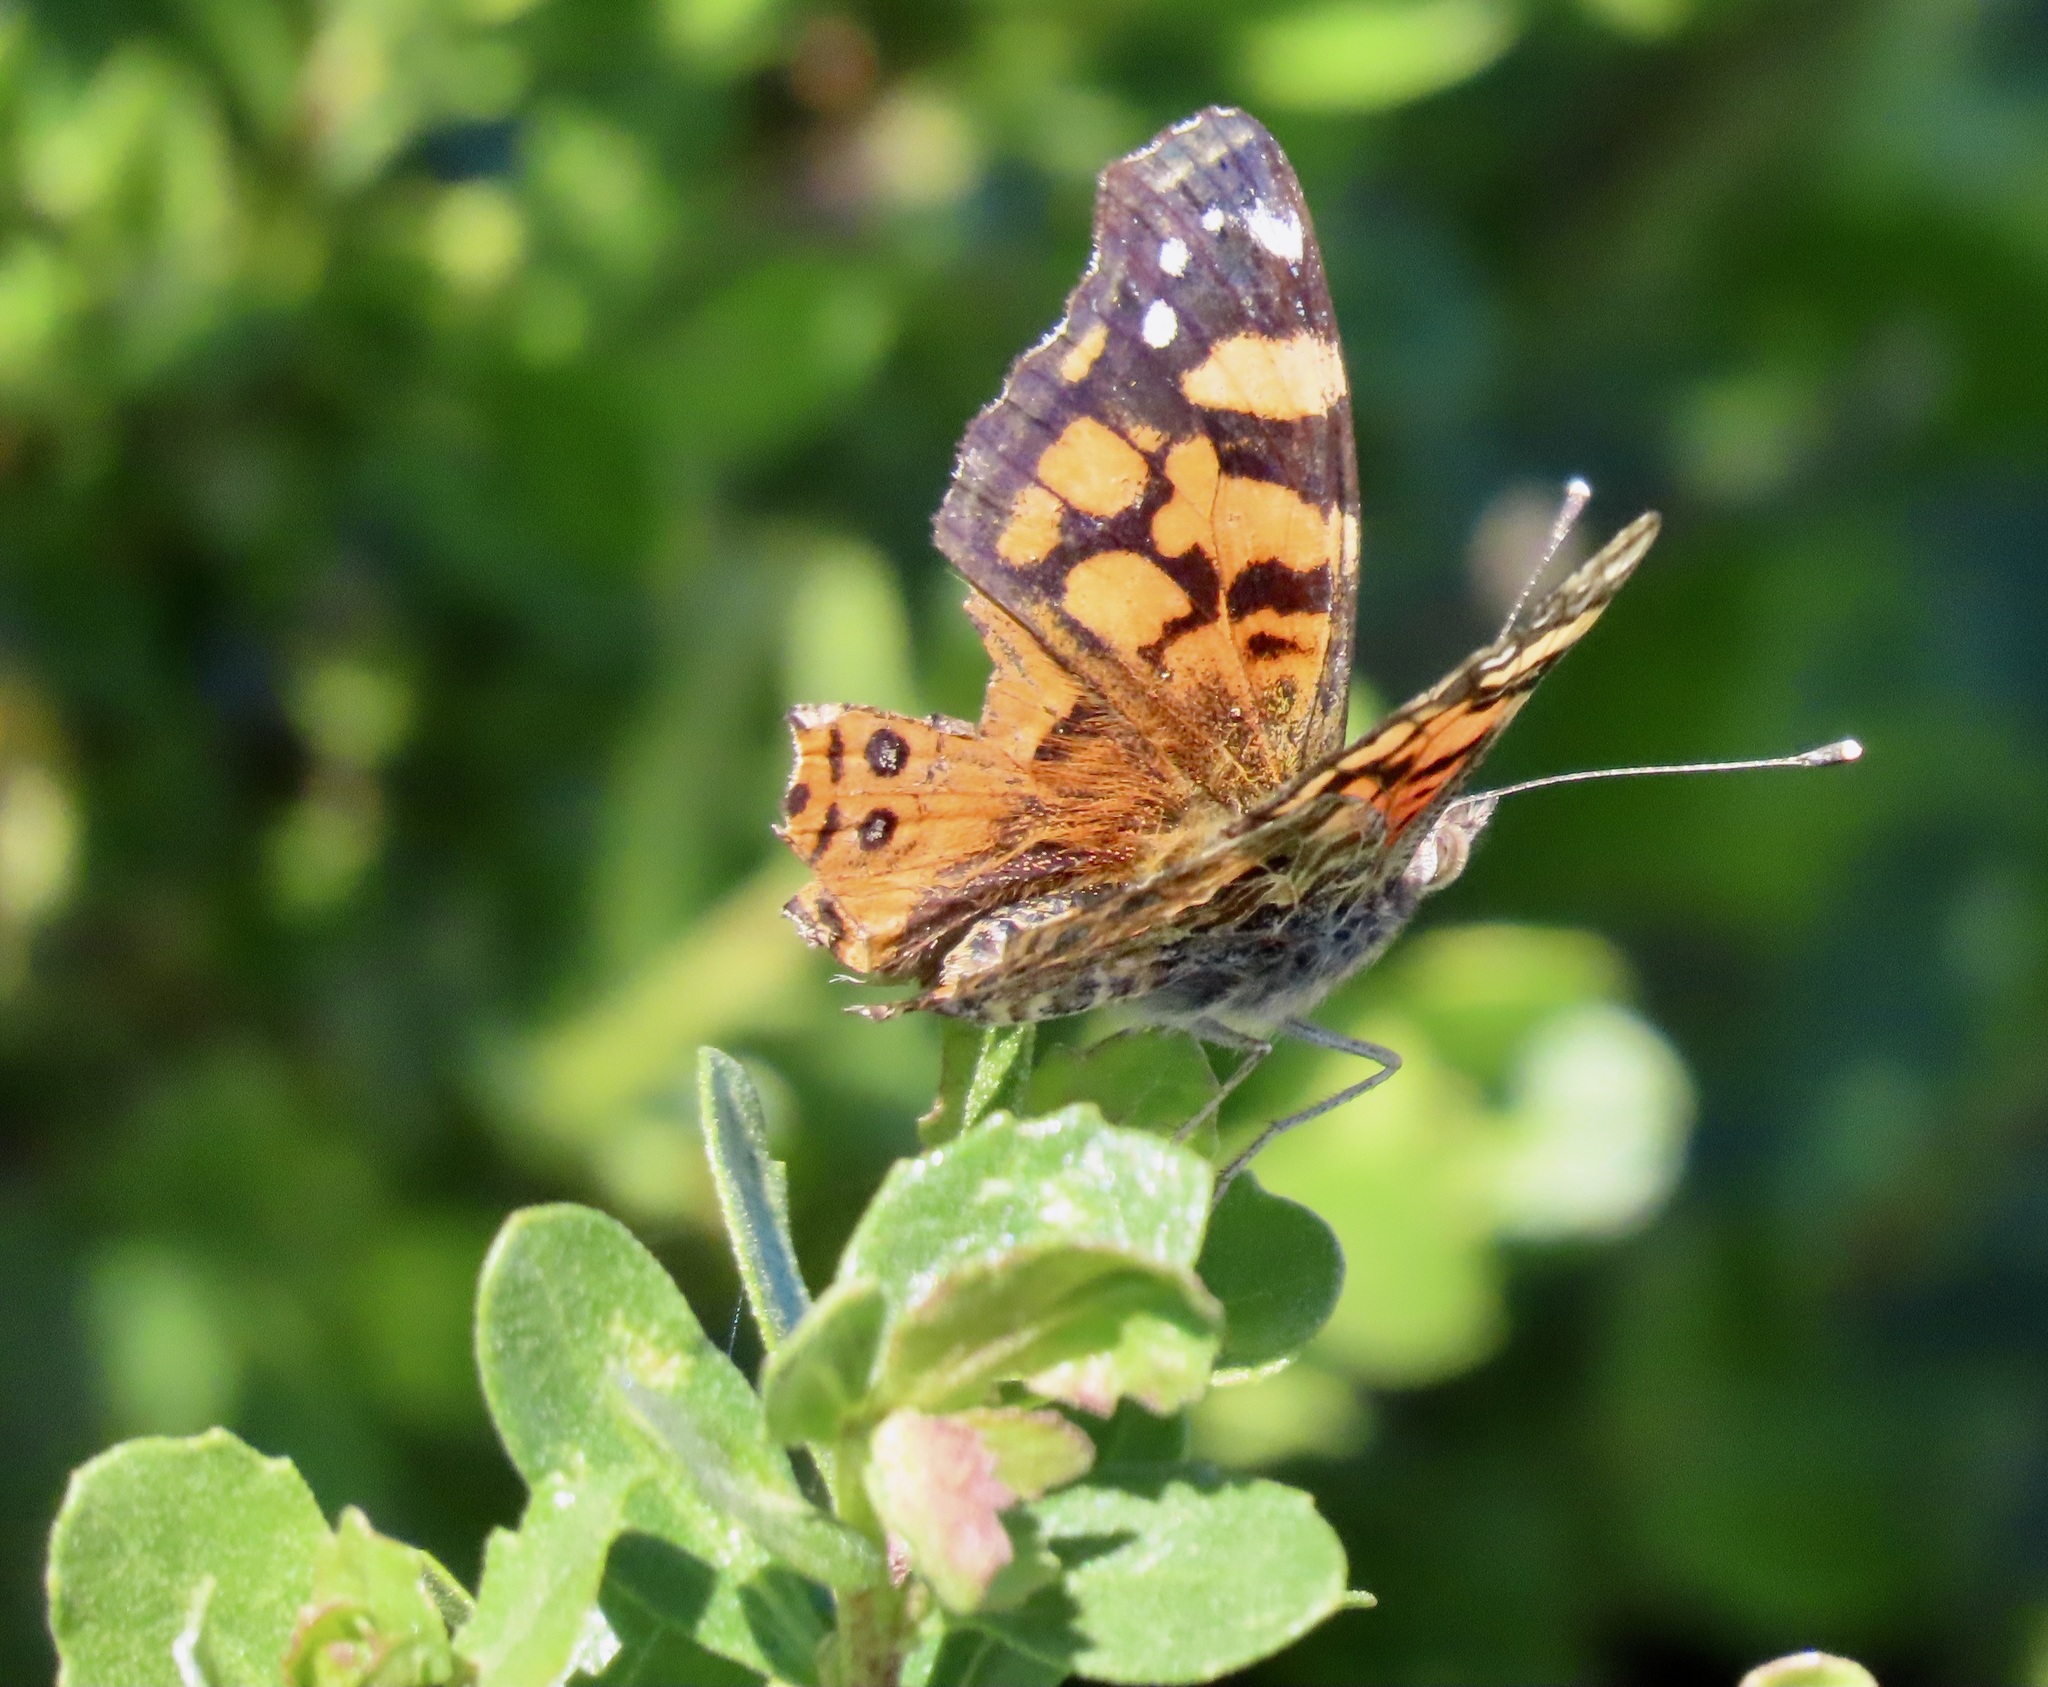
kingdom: Animalia
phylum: Arthropoda
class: Insecta
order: Lepidoptera
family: Nymphalidae
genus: Vanessa
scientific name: Vanessa annabella
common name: West coast lady
